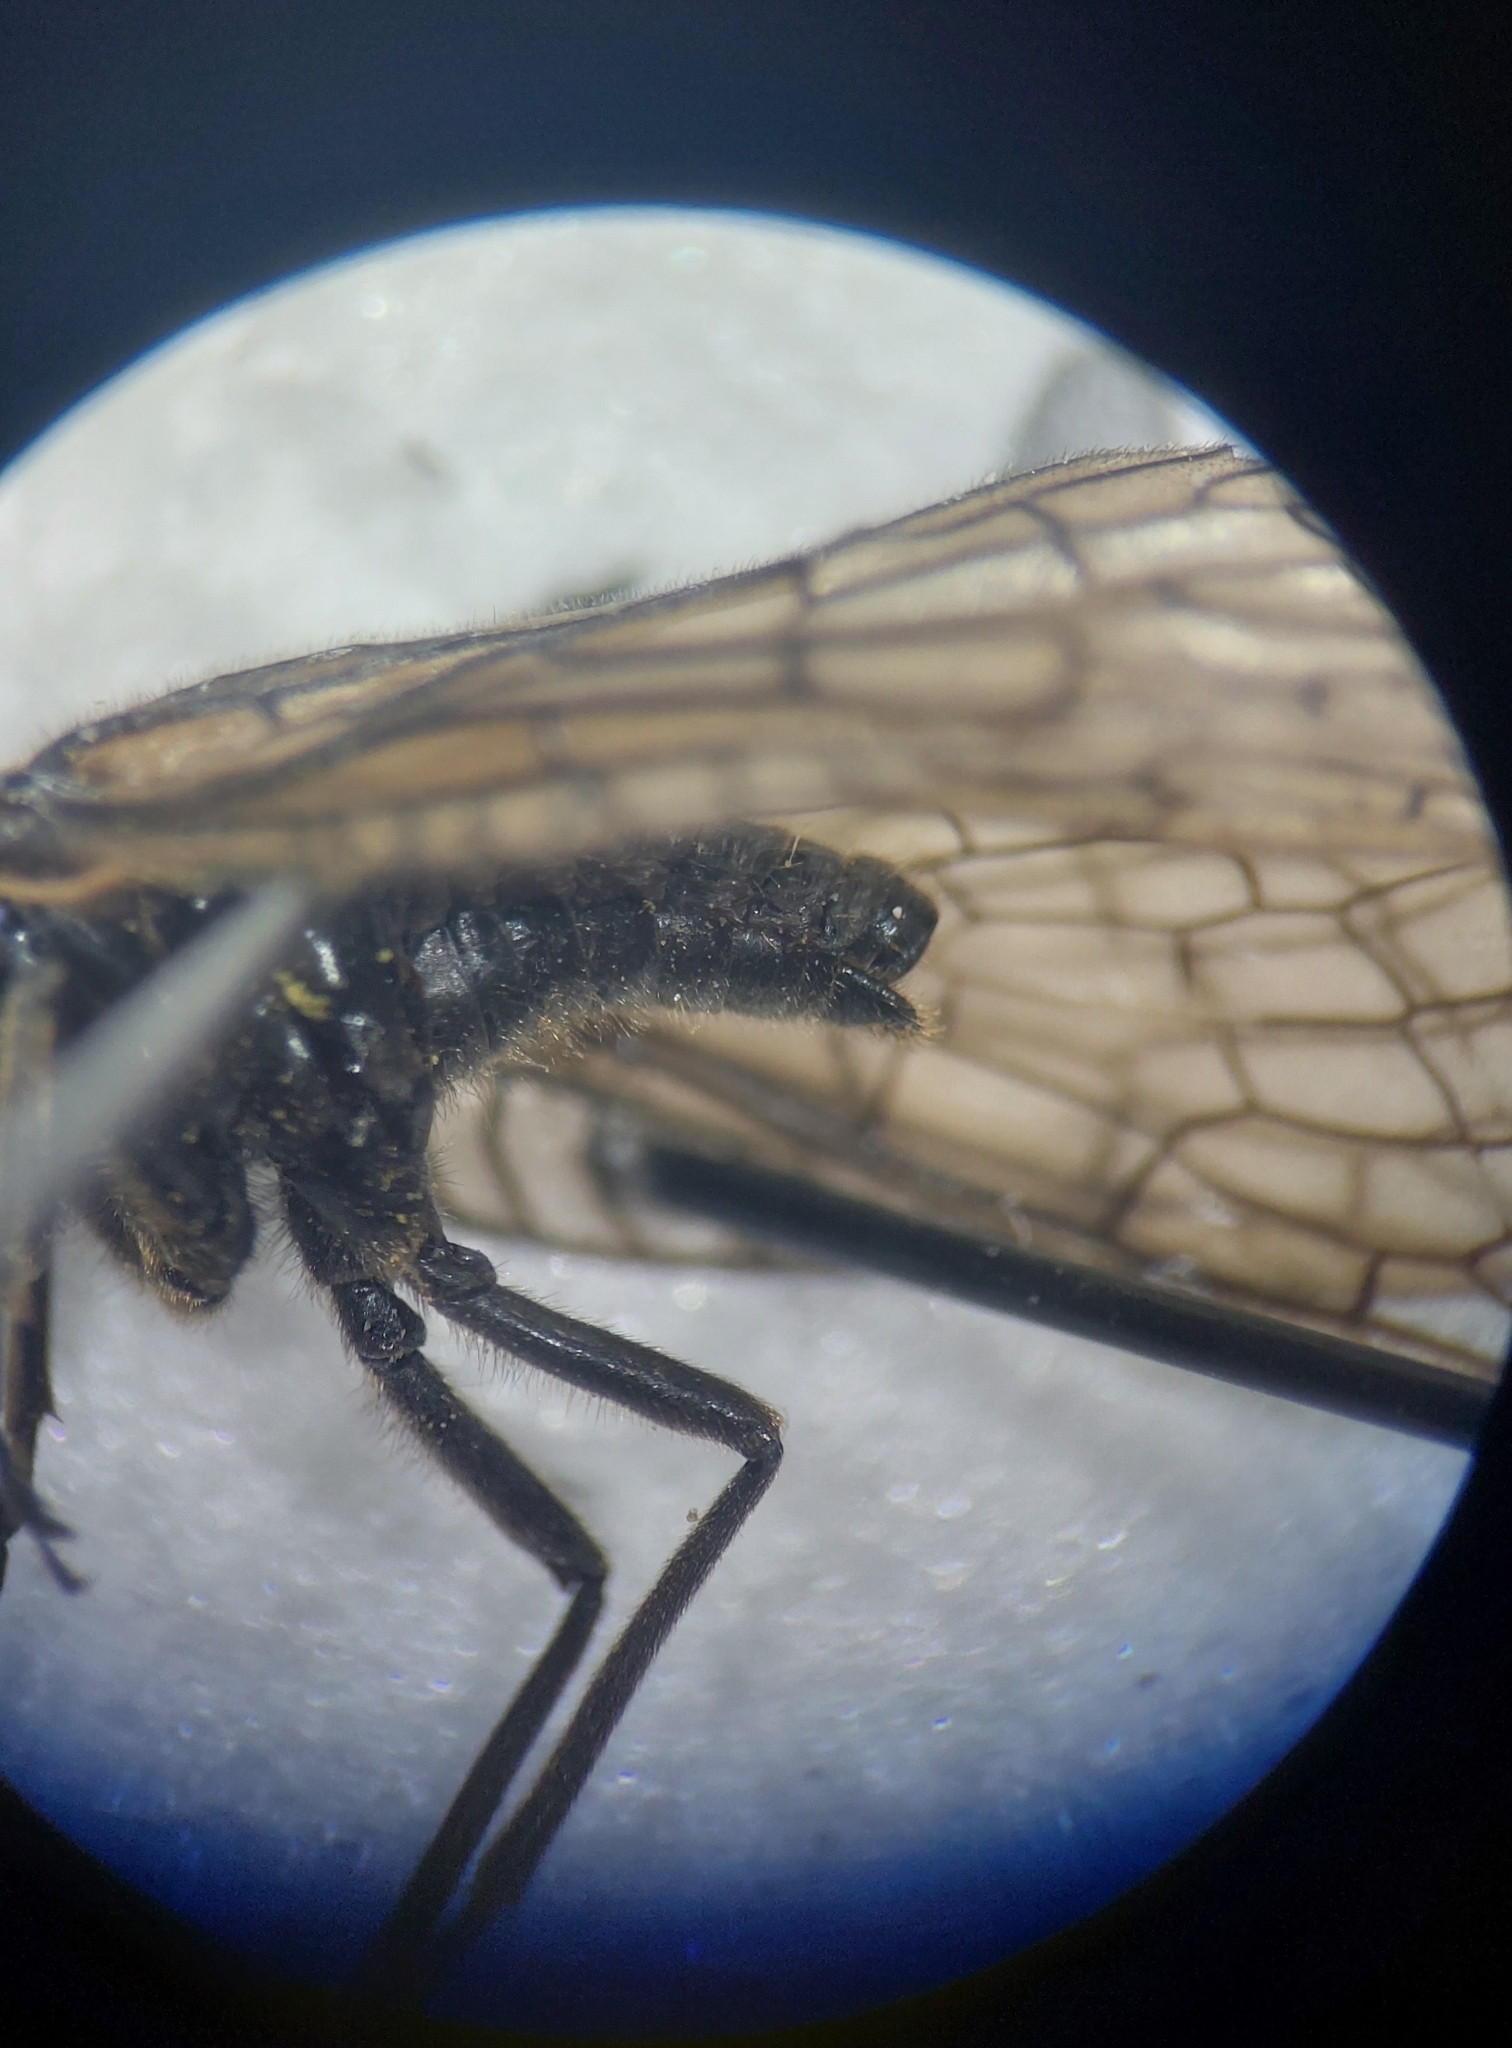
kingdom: Animalia
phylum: Arthropoda
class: Insecta
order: Megaloptera
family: Sialidae
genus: Sialis
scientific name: Sialis lutaria
